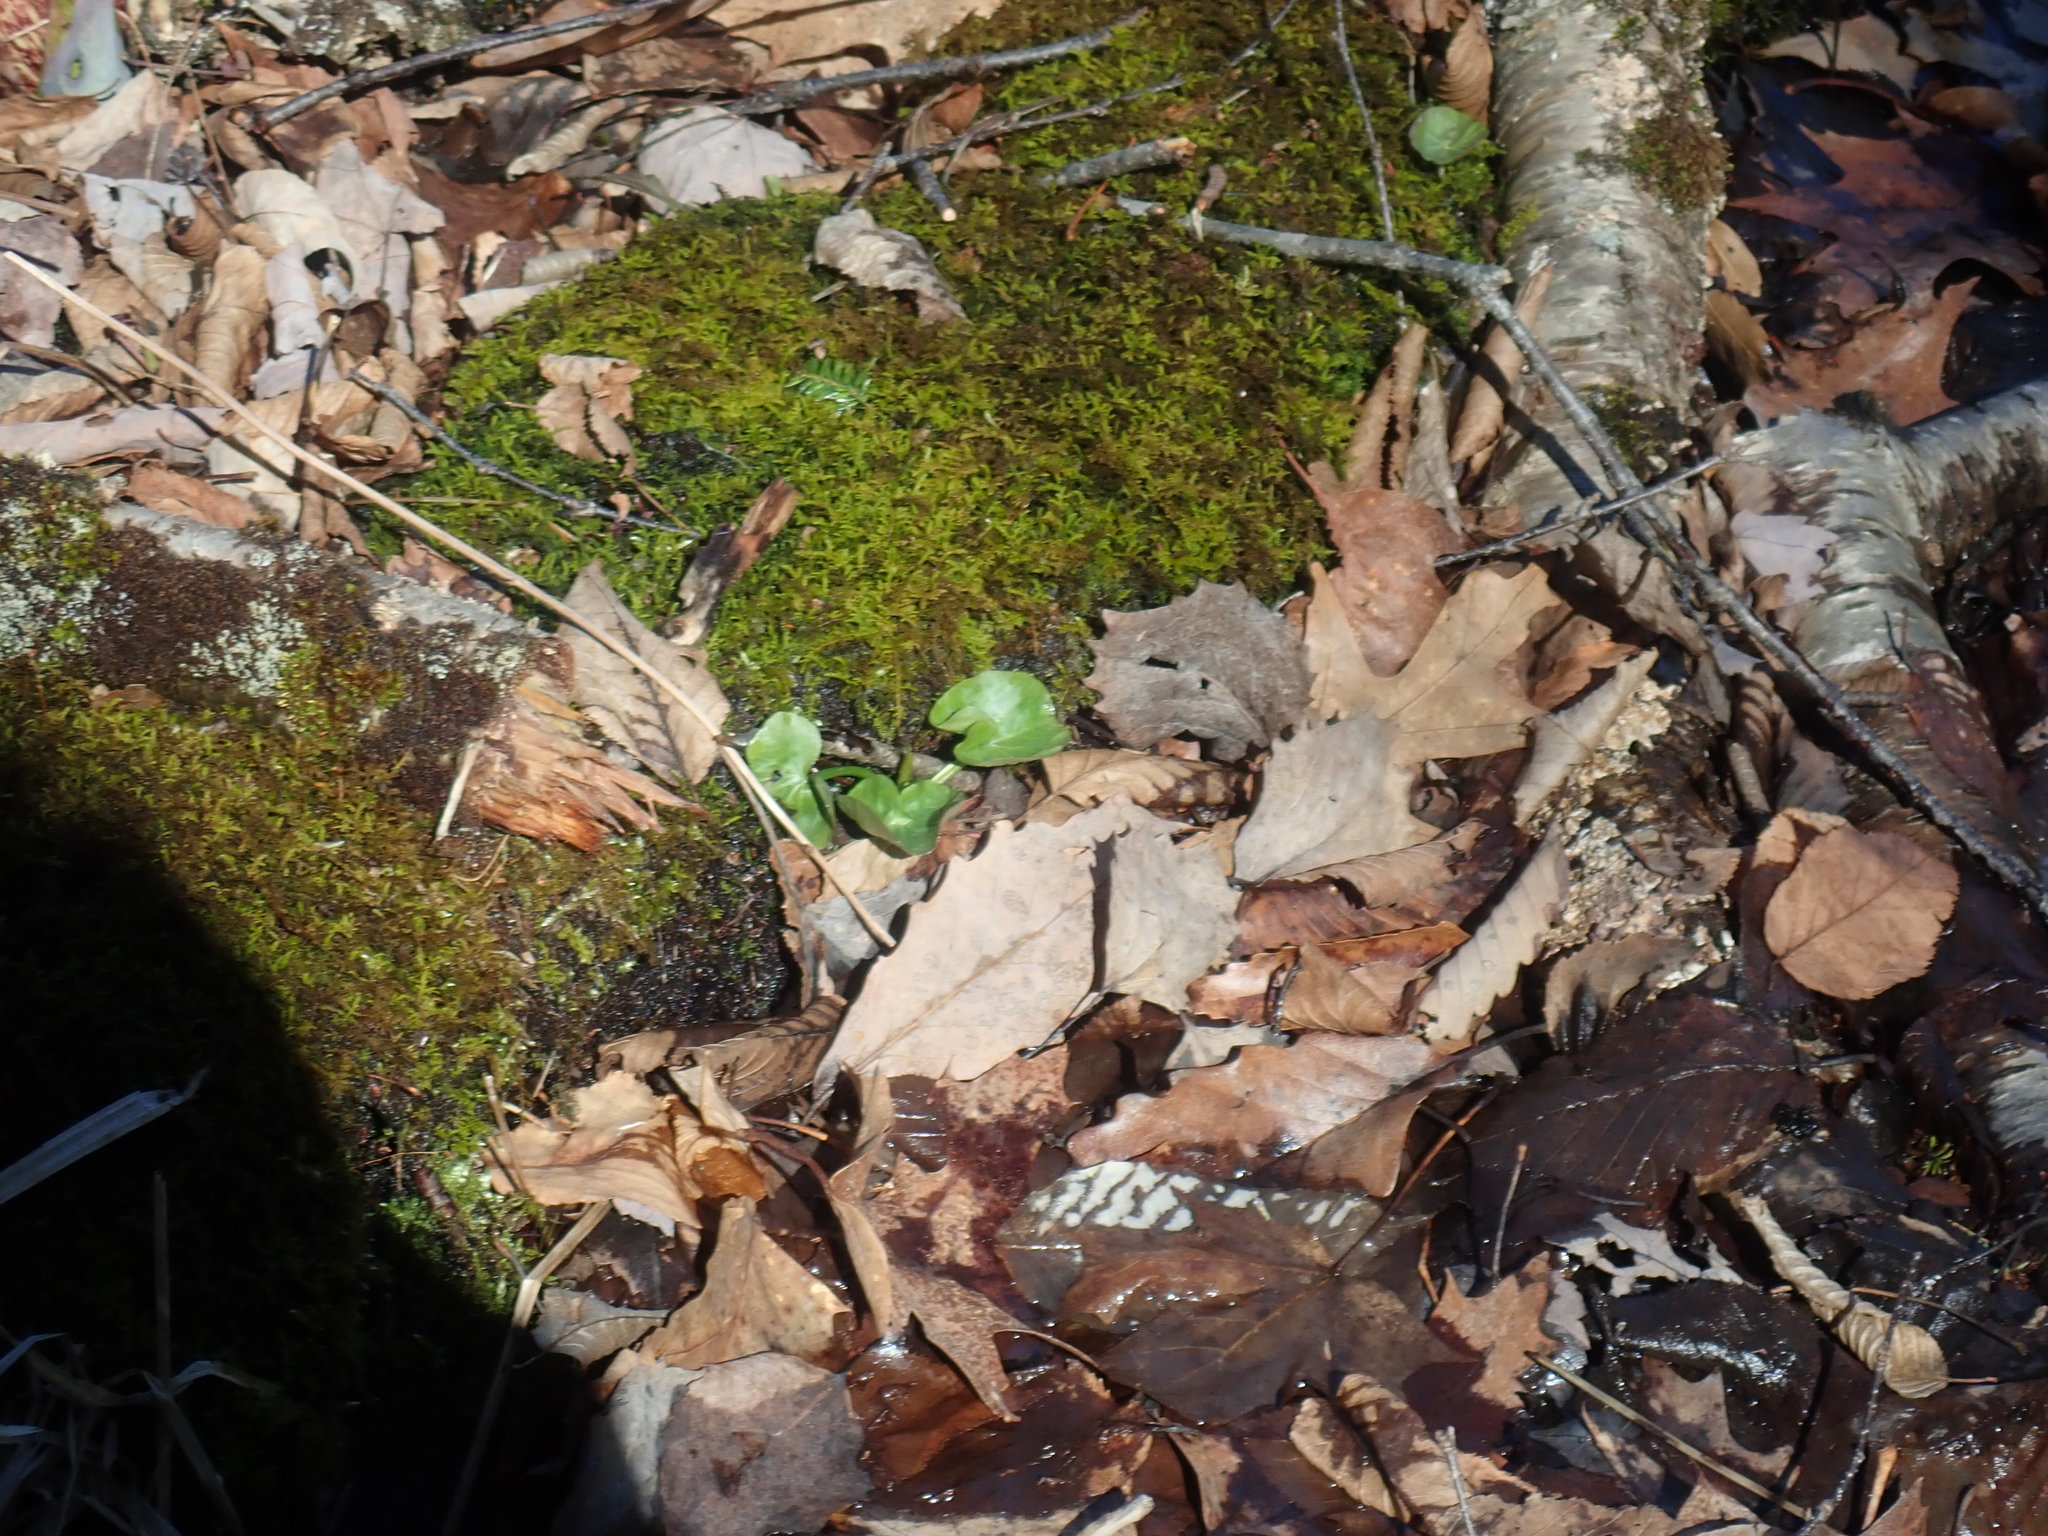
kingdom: Plantae
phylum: Tracheophyta
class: Magnoliopsida
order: Ranunculales
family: Ranunculaceae
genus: Caltha
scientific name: Caltha palustris
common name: Marsh marigold
